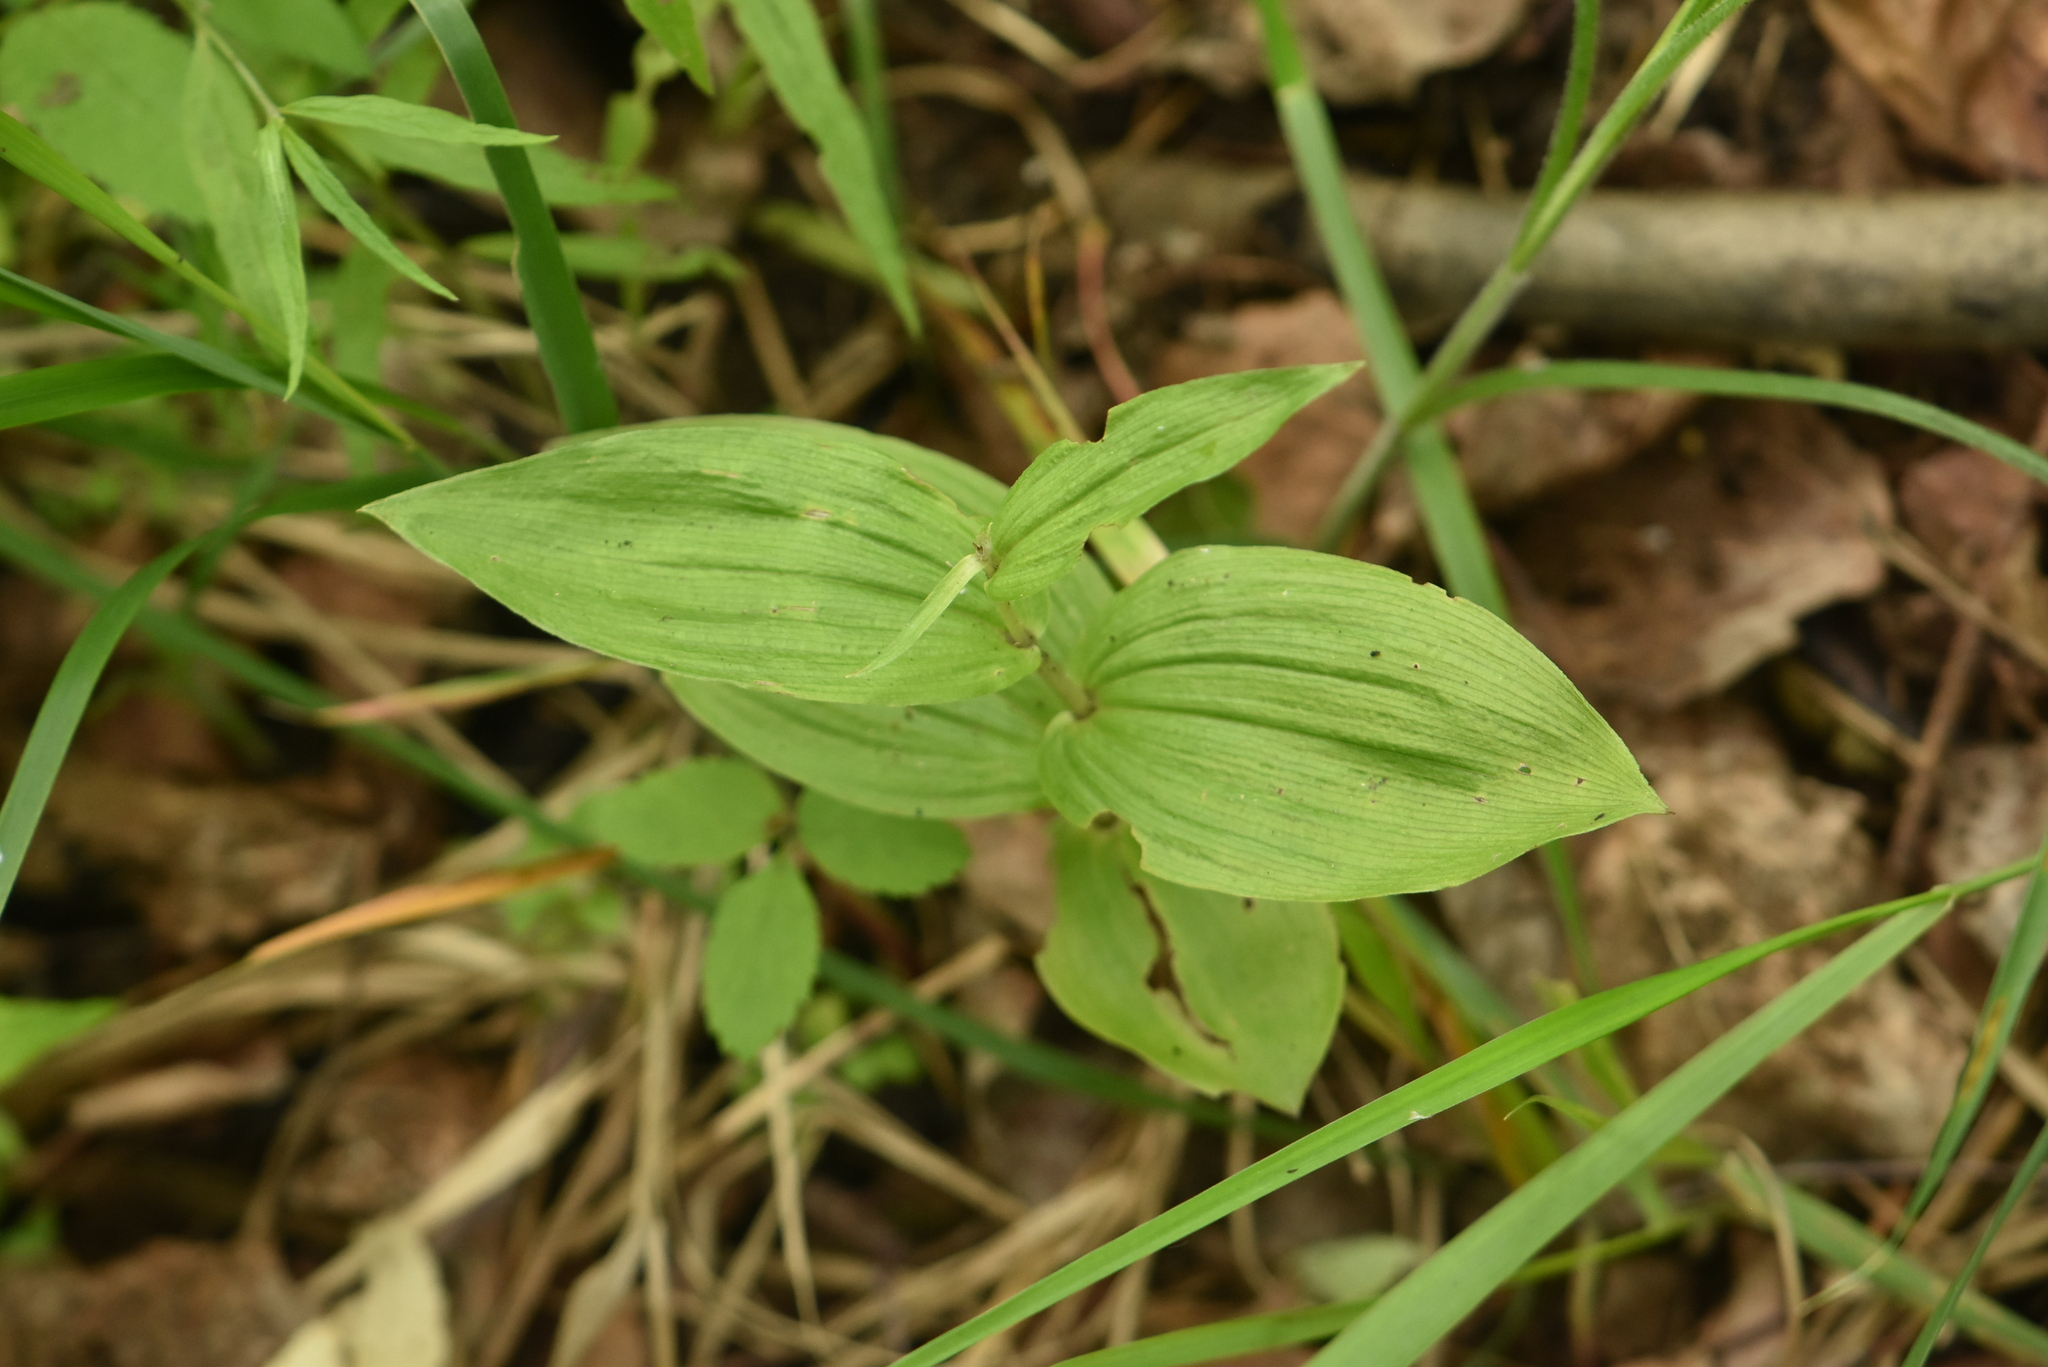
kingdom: Plantae
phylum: Tracheophyta
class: Liliopsida
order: Asparagales
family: Orchidaceae
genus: Epipactis
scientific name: Epipactis helleborine
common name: Broad-leaved helleborine
